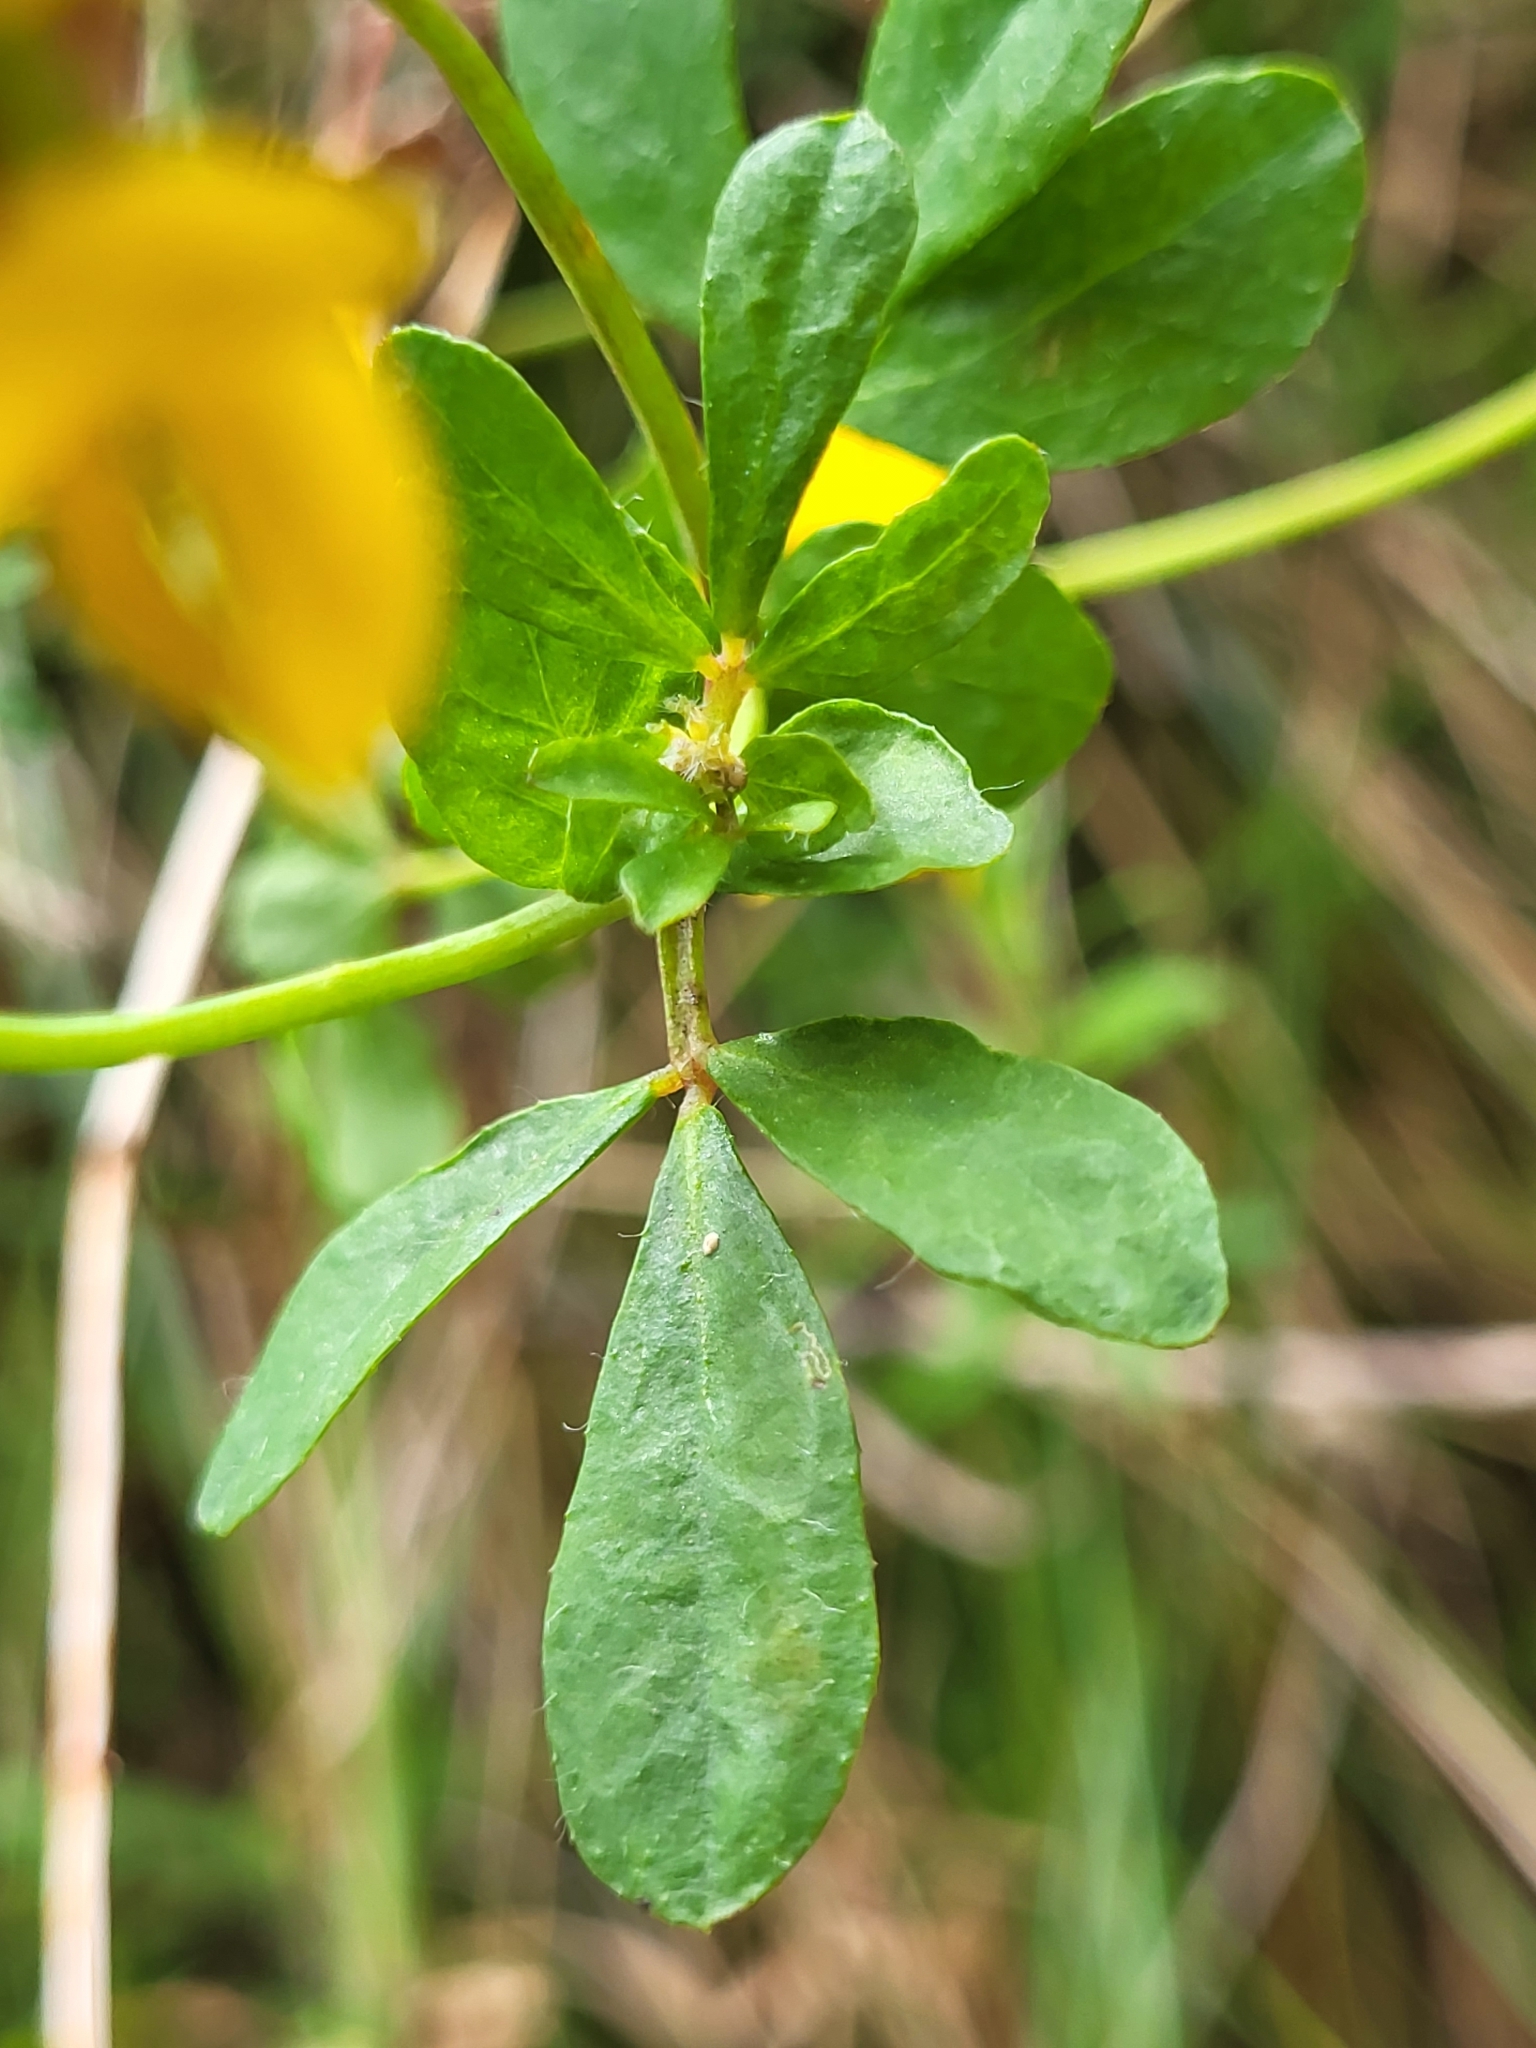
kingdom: Plantae
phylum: Tracheophyta
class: Magnoliopsida
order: Fabales
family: Fabaceae
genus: Lotus
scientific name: Lotus pedunculatus
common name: Greater birdsfoot-trefoil
